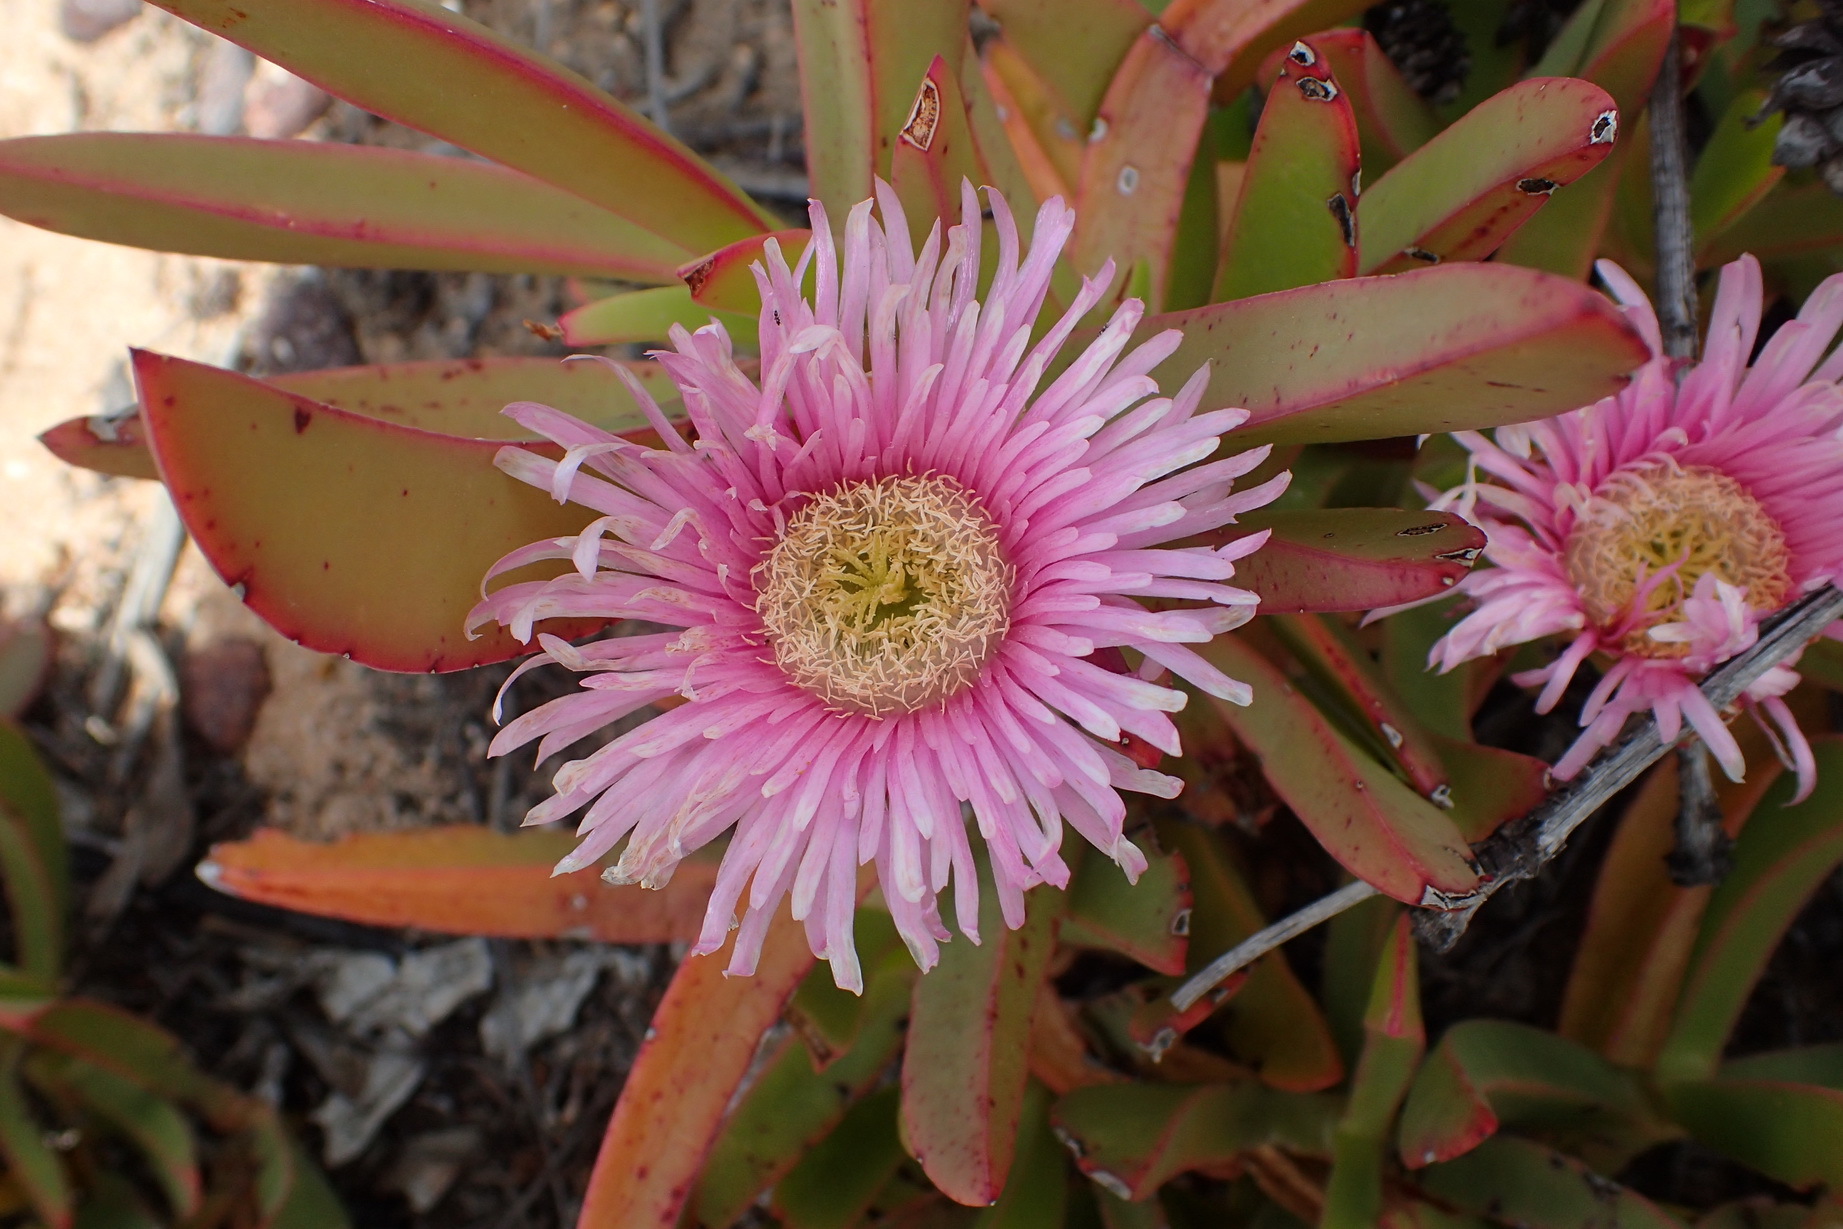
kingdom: Plantae
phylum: Tracheophyta
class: Magnoliopsida
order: Caryophyllales
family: Aizoaceae
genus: Carpobrotus
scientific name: Carpobrotus mellei
